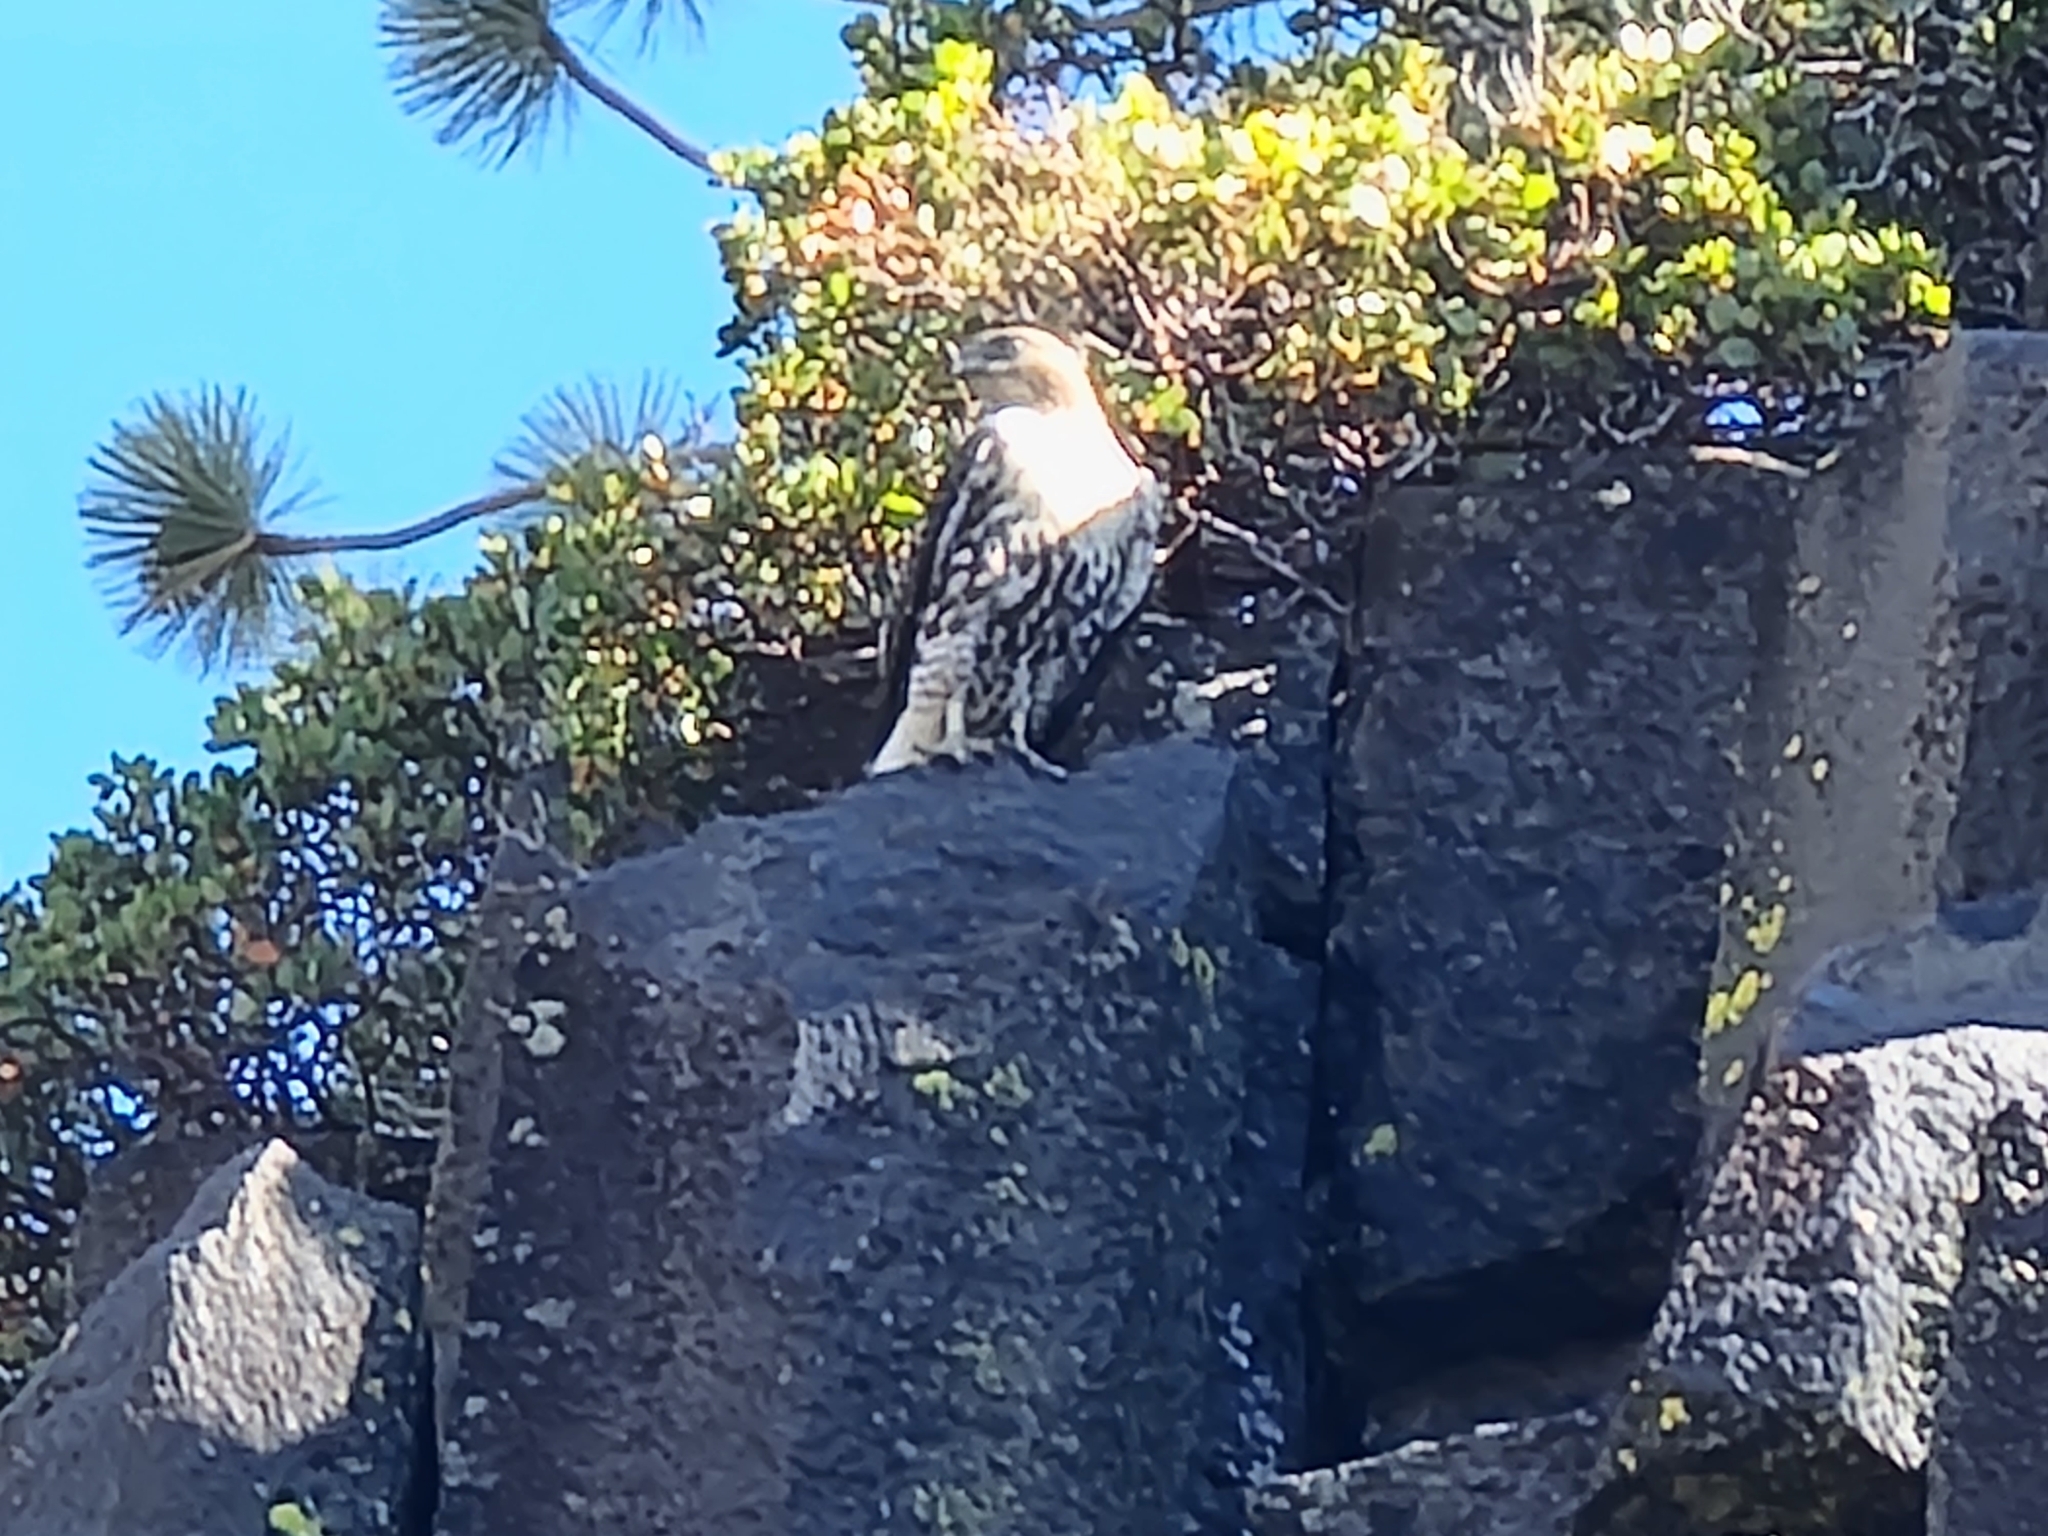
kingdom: Animalia
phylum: Chordata
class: Aves
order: Accipitriformes
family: Accipitridae
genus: Buteo
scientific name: Buteo jamaicensis
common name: Red-tailed hawk
